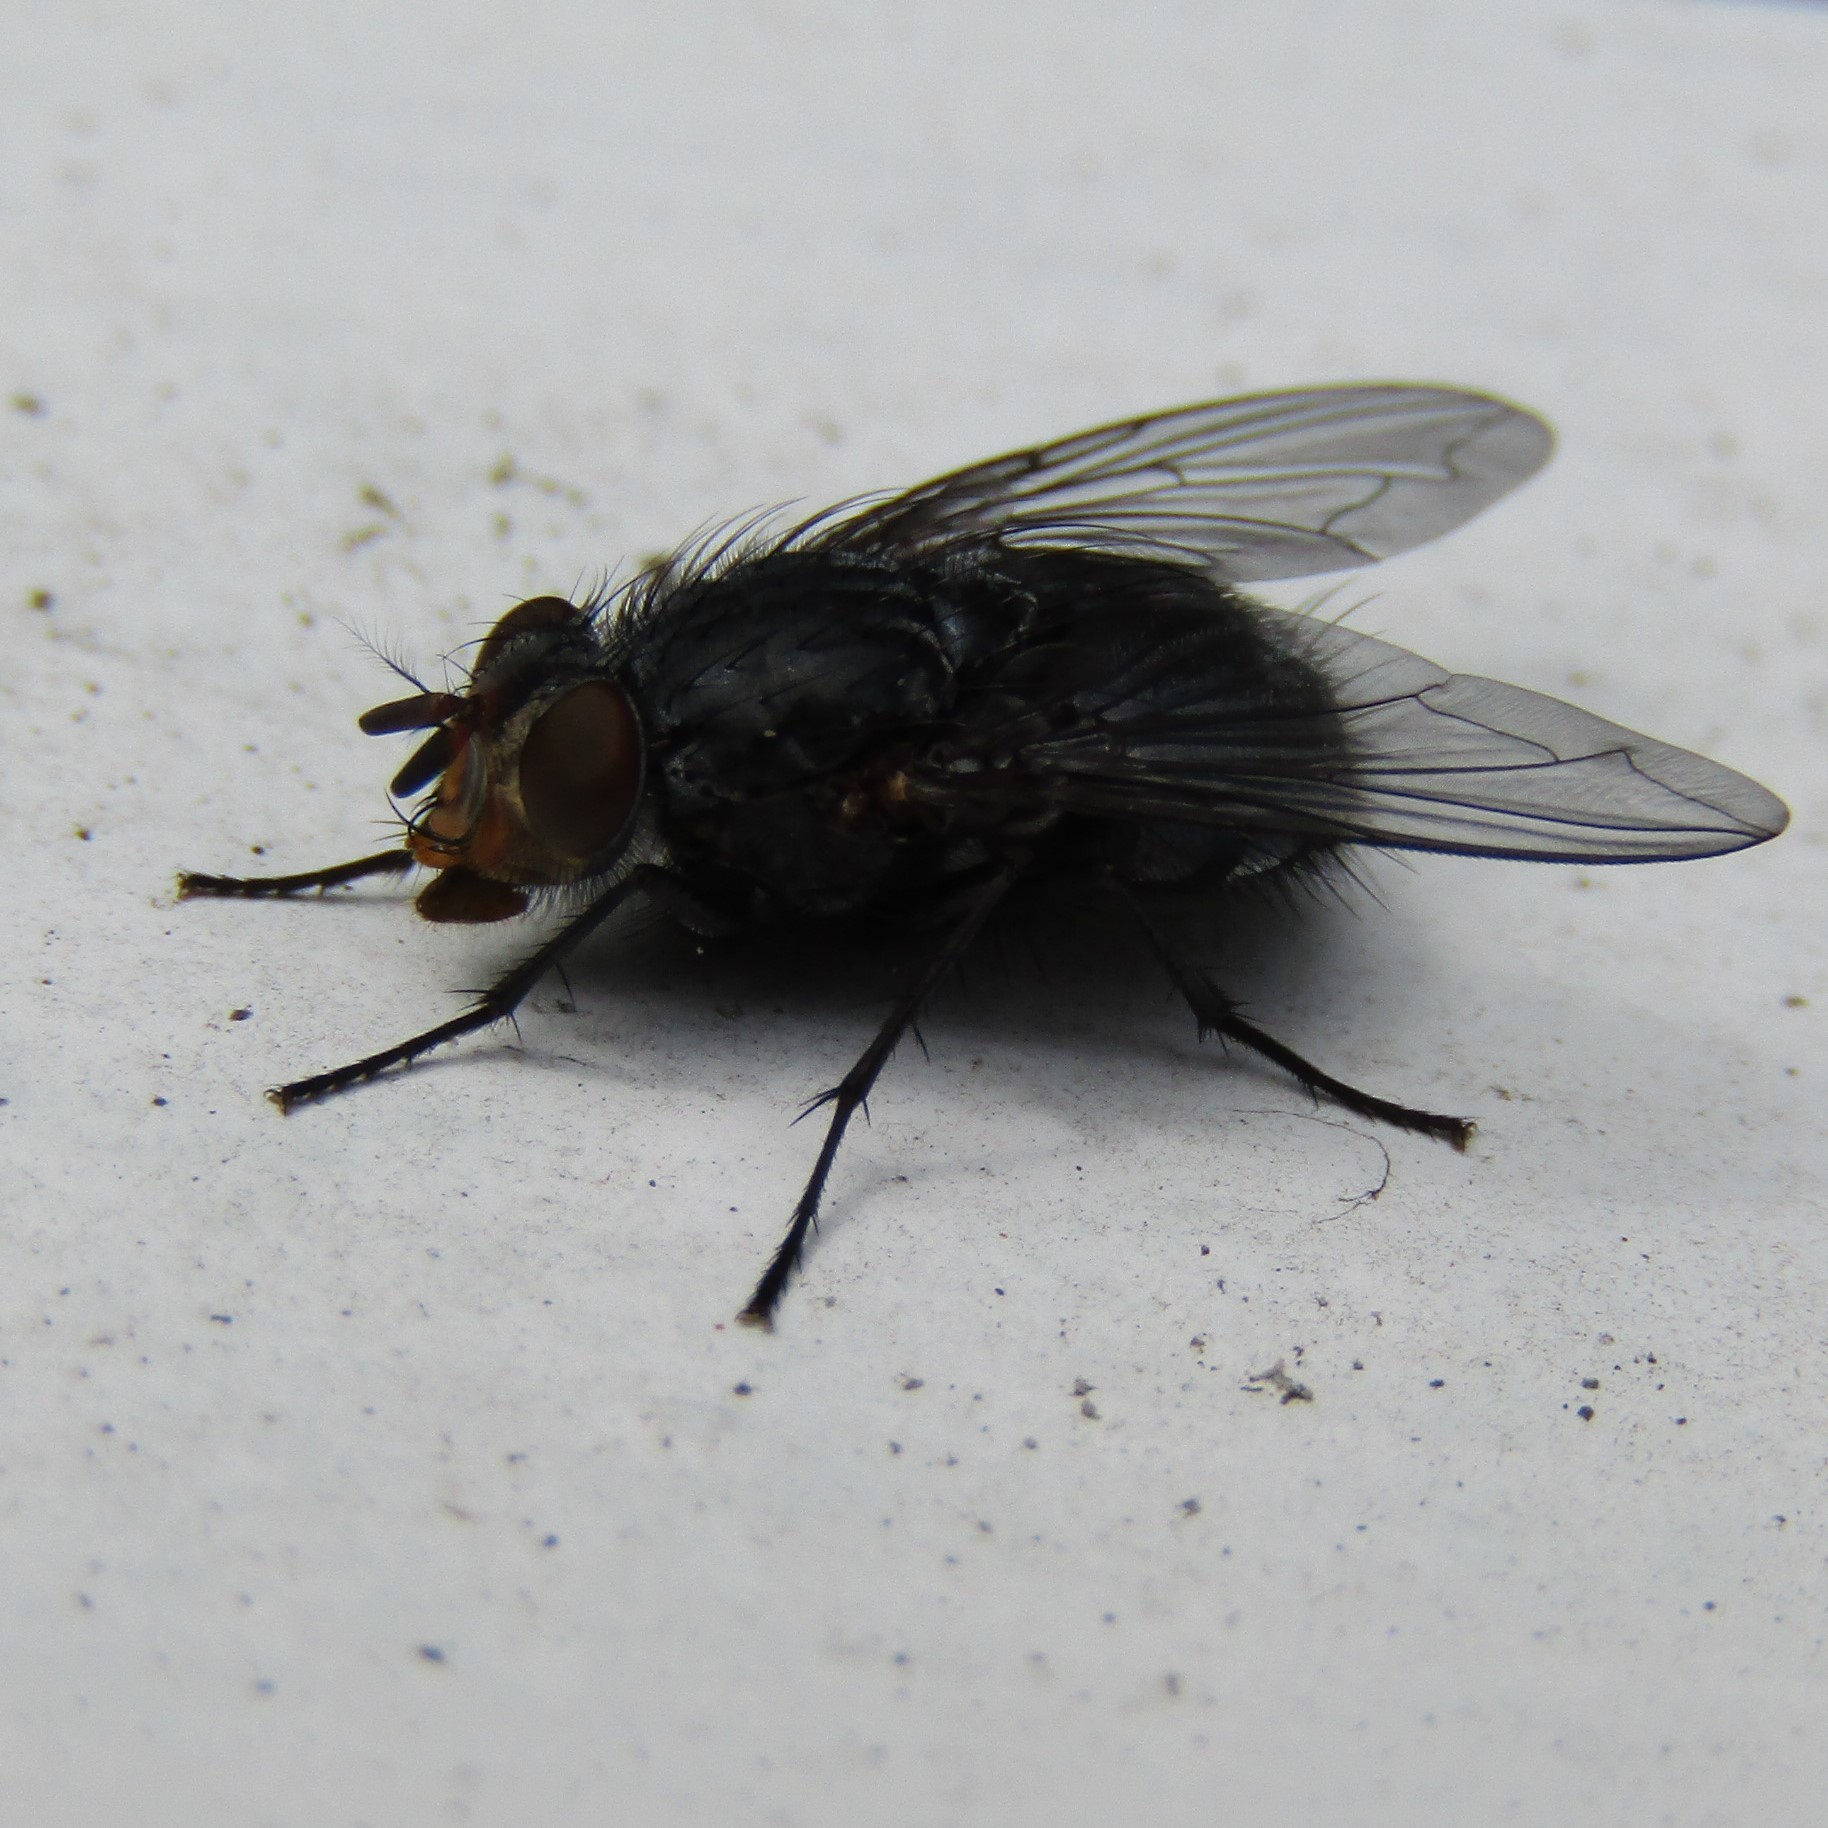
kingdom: Animalia
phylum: Arthropoda
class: Insecta
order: Diptera
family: Calliphoridae
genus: Calliphora
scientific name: Calliphora vicina
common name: Common blow flie
